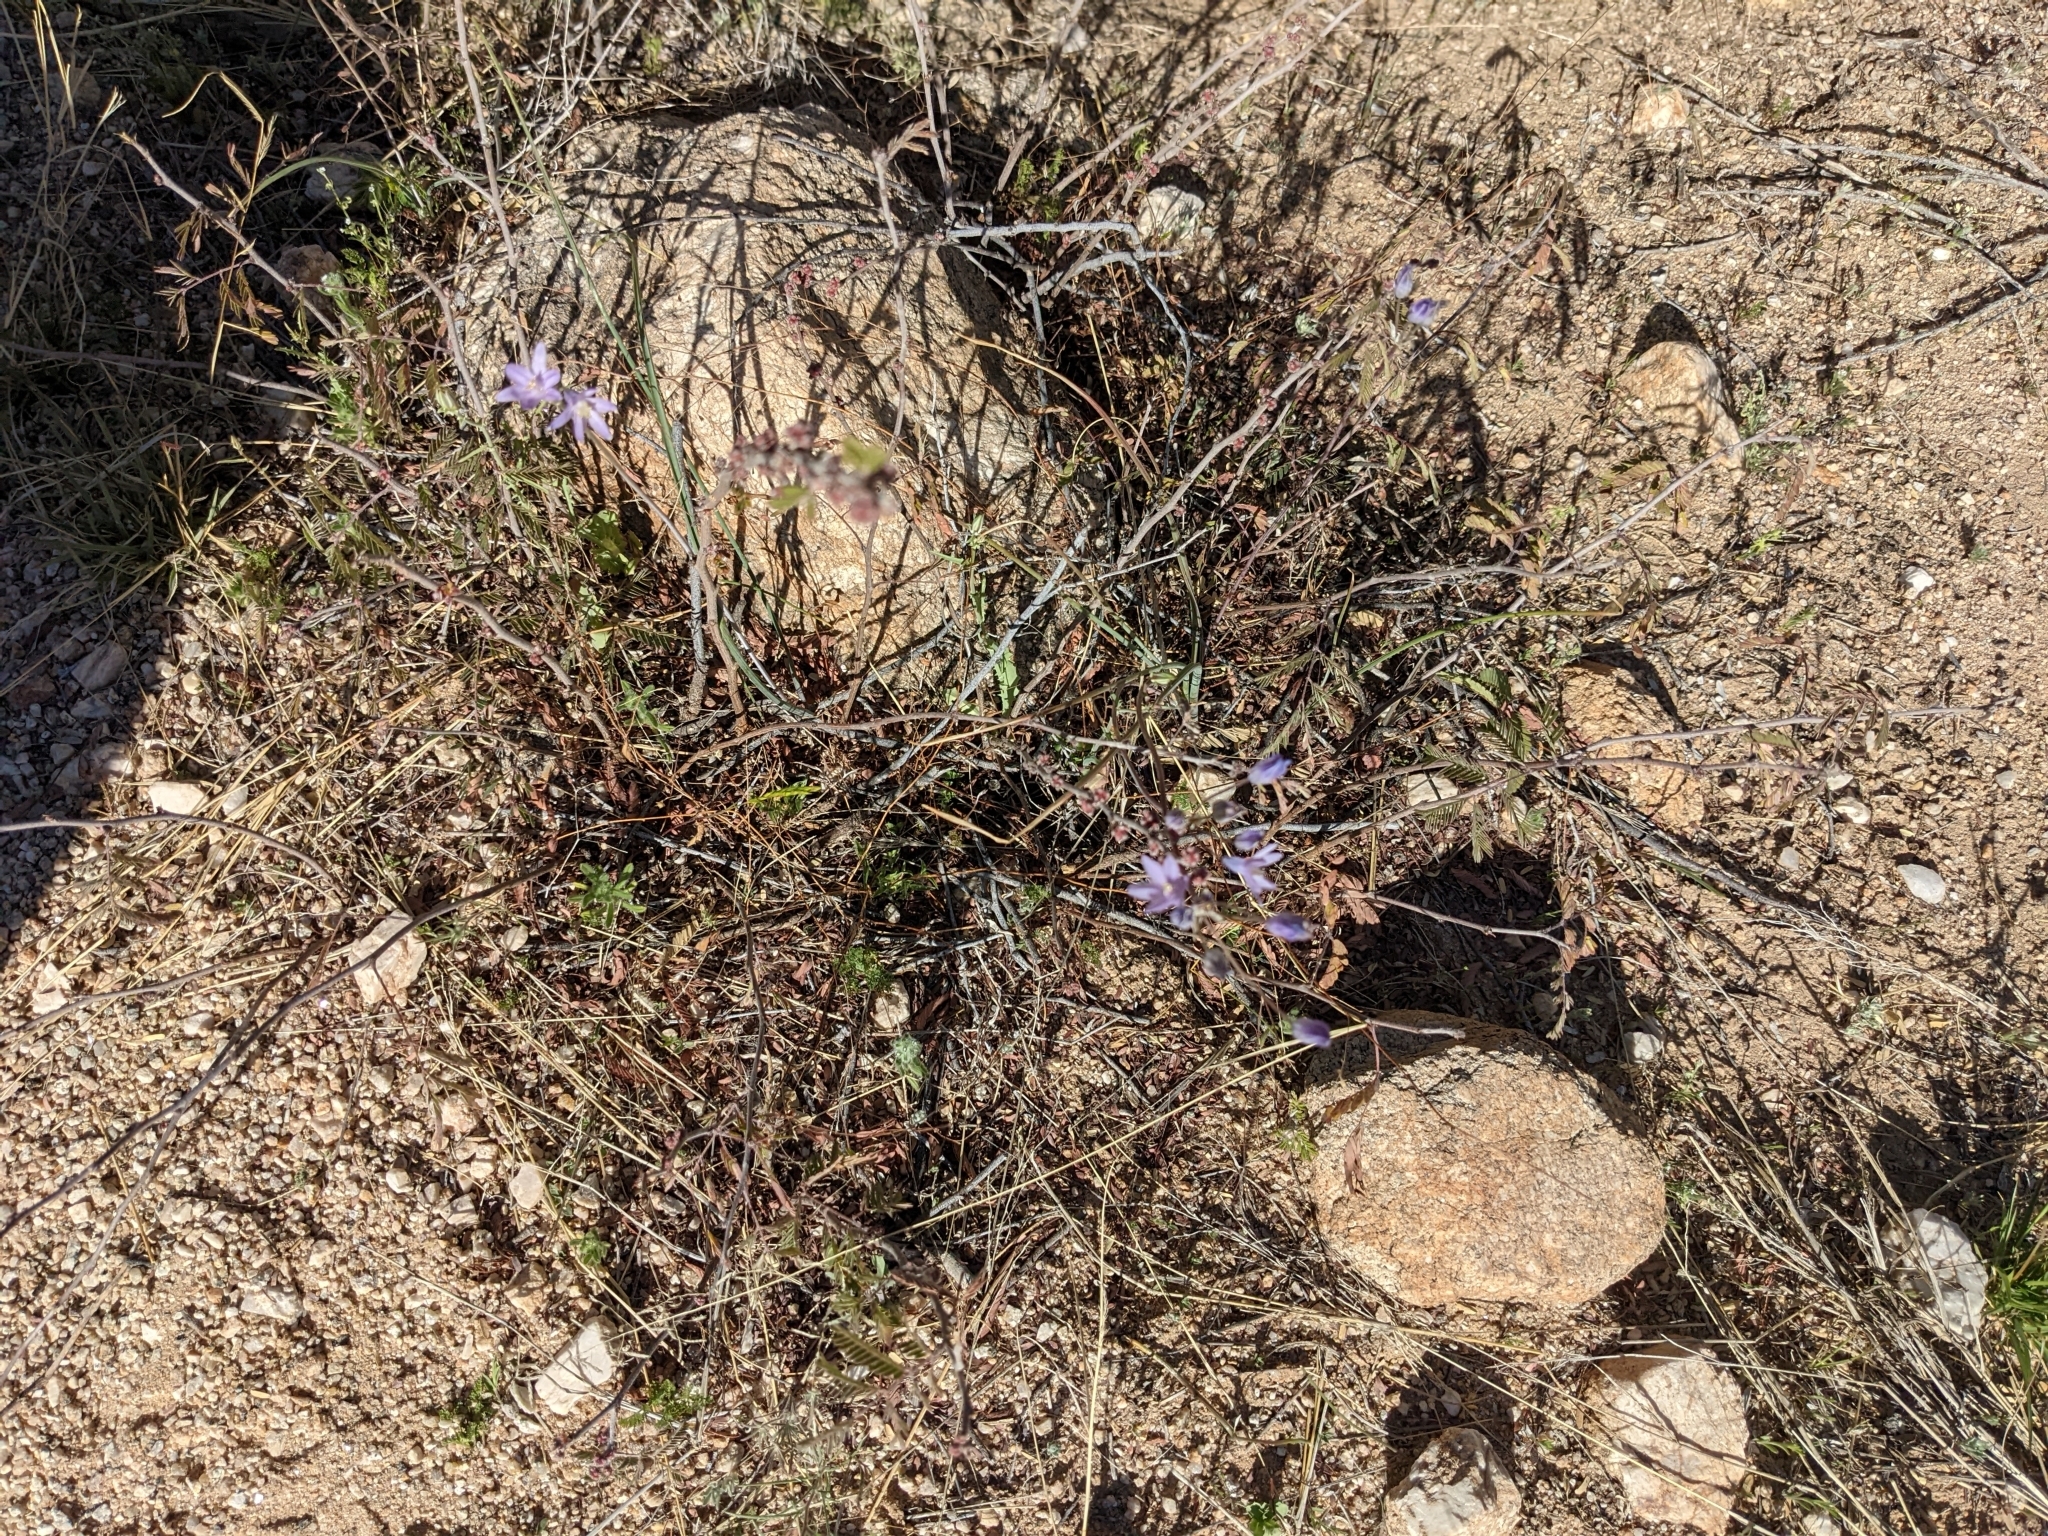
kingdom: Plantae
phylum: Tracheophyta
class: Liliopsida
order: Asparagales
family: Asparagaceae
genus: Dipterostemon
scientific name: Dipterostemon capitatus
